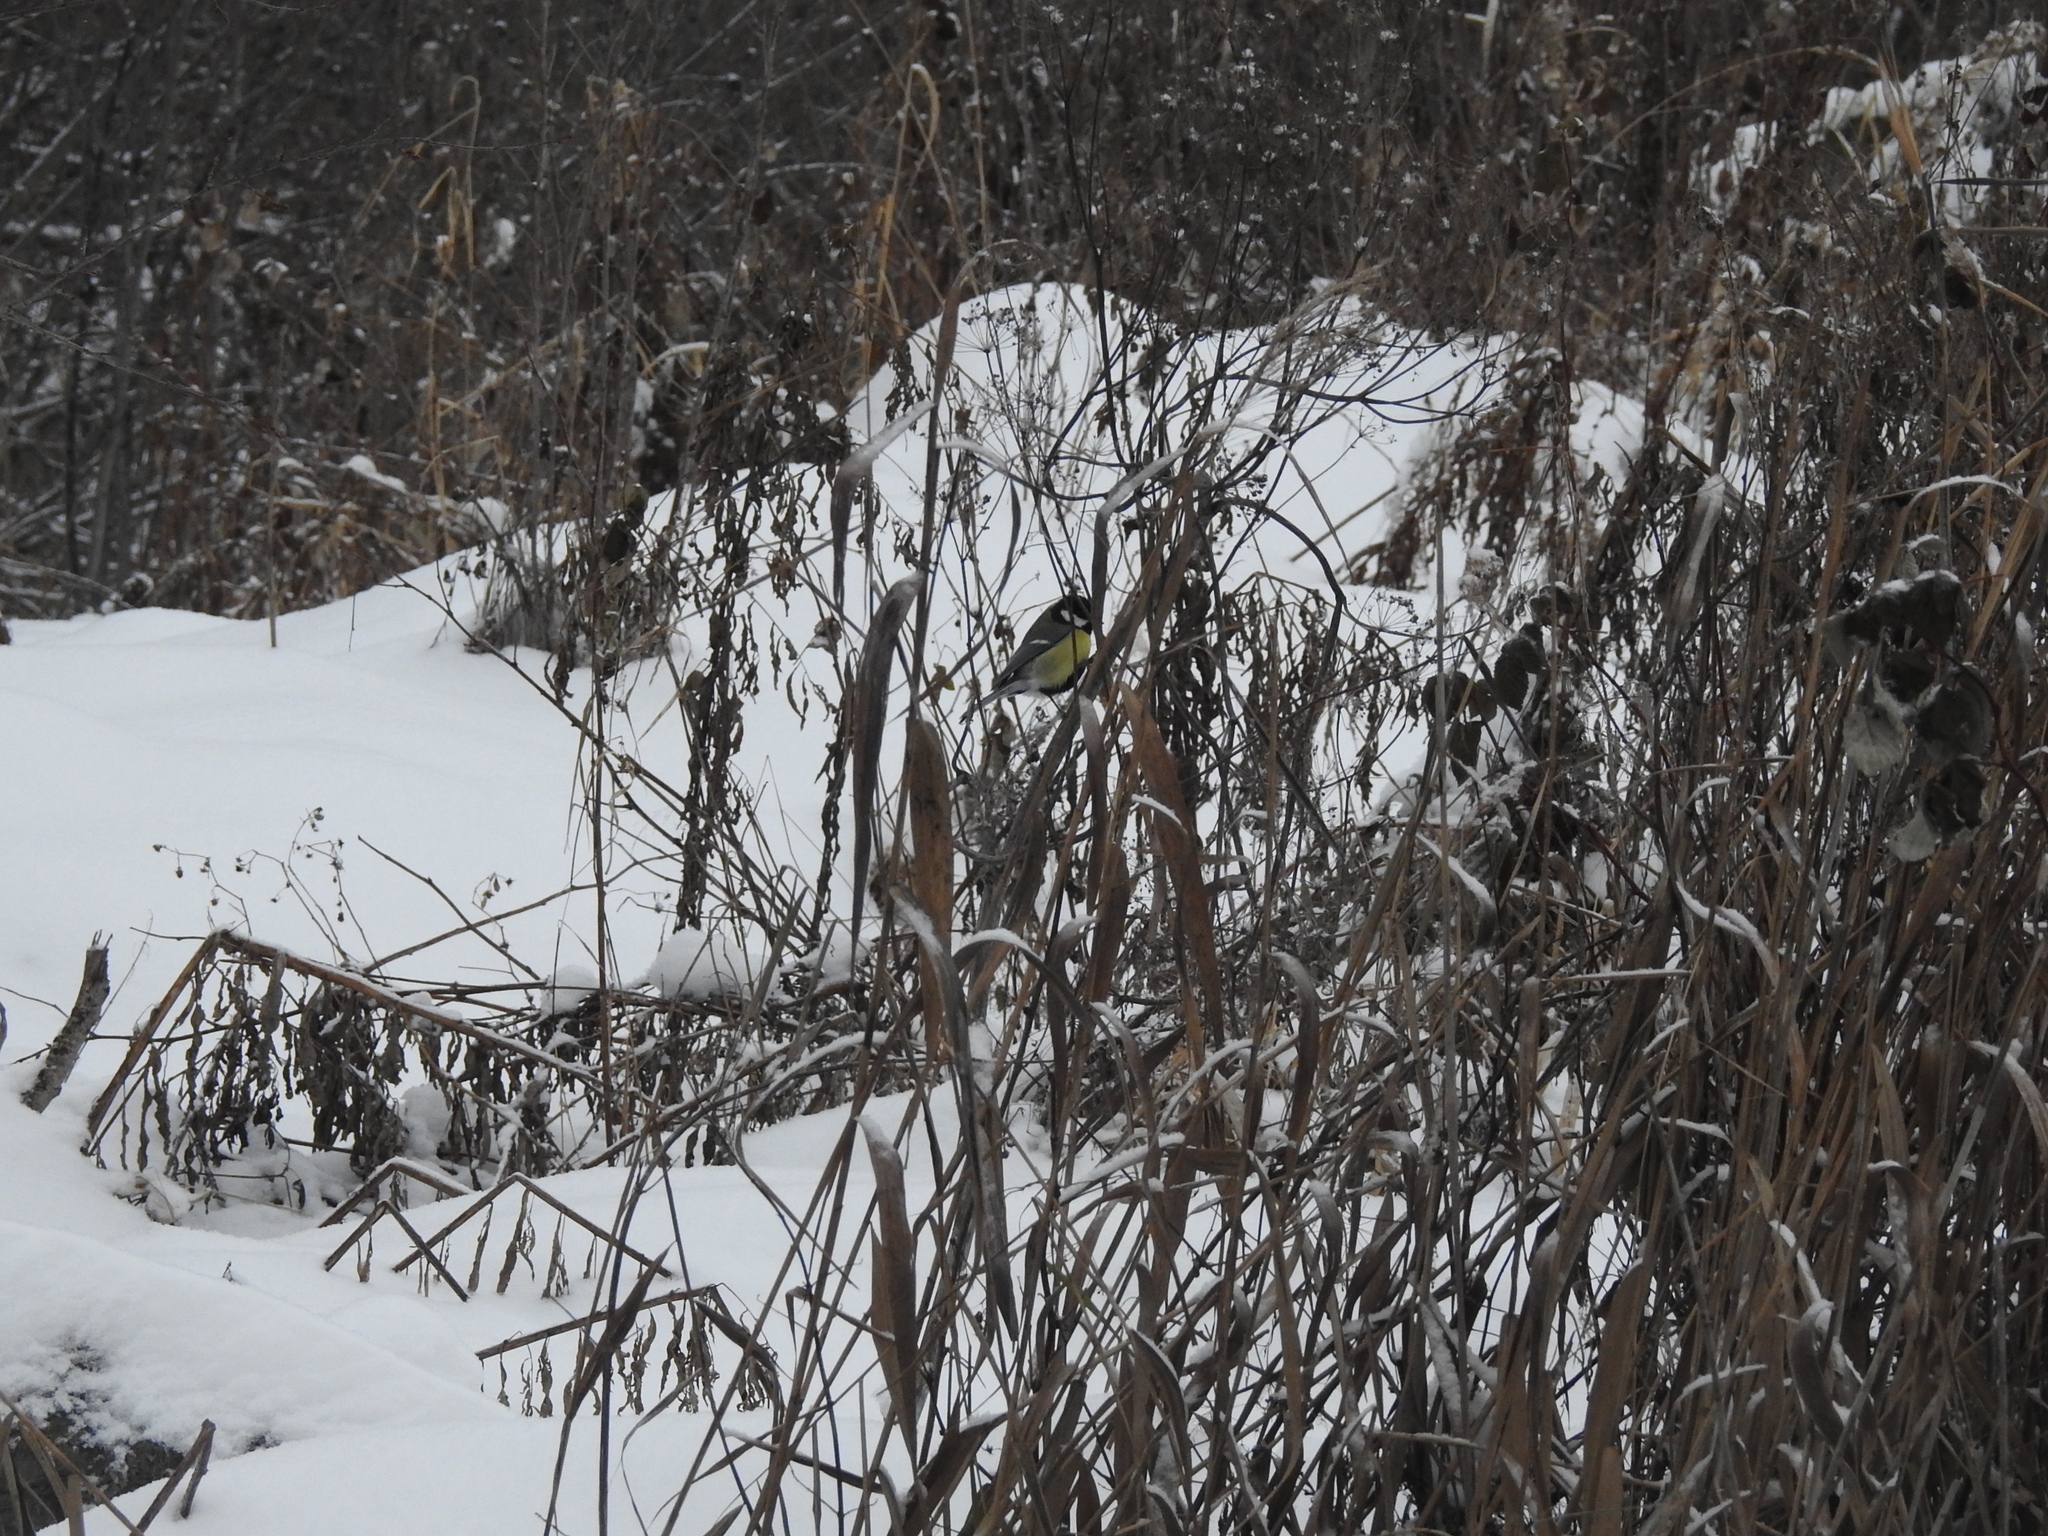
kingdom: Animalia
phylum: Chordata
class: Aves
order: Passeriformes
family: Paridae
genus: Parus
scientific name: Parus major
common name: Great tit
